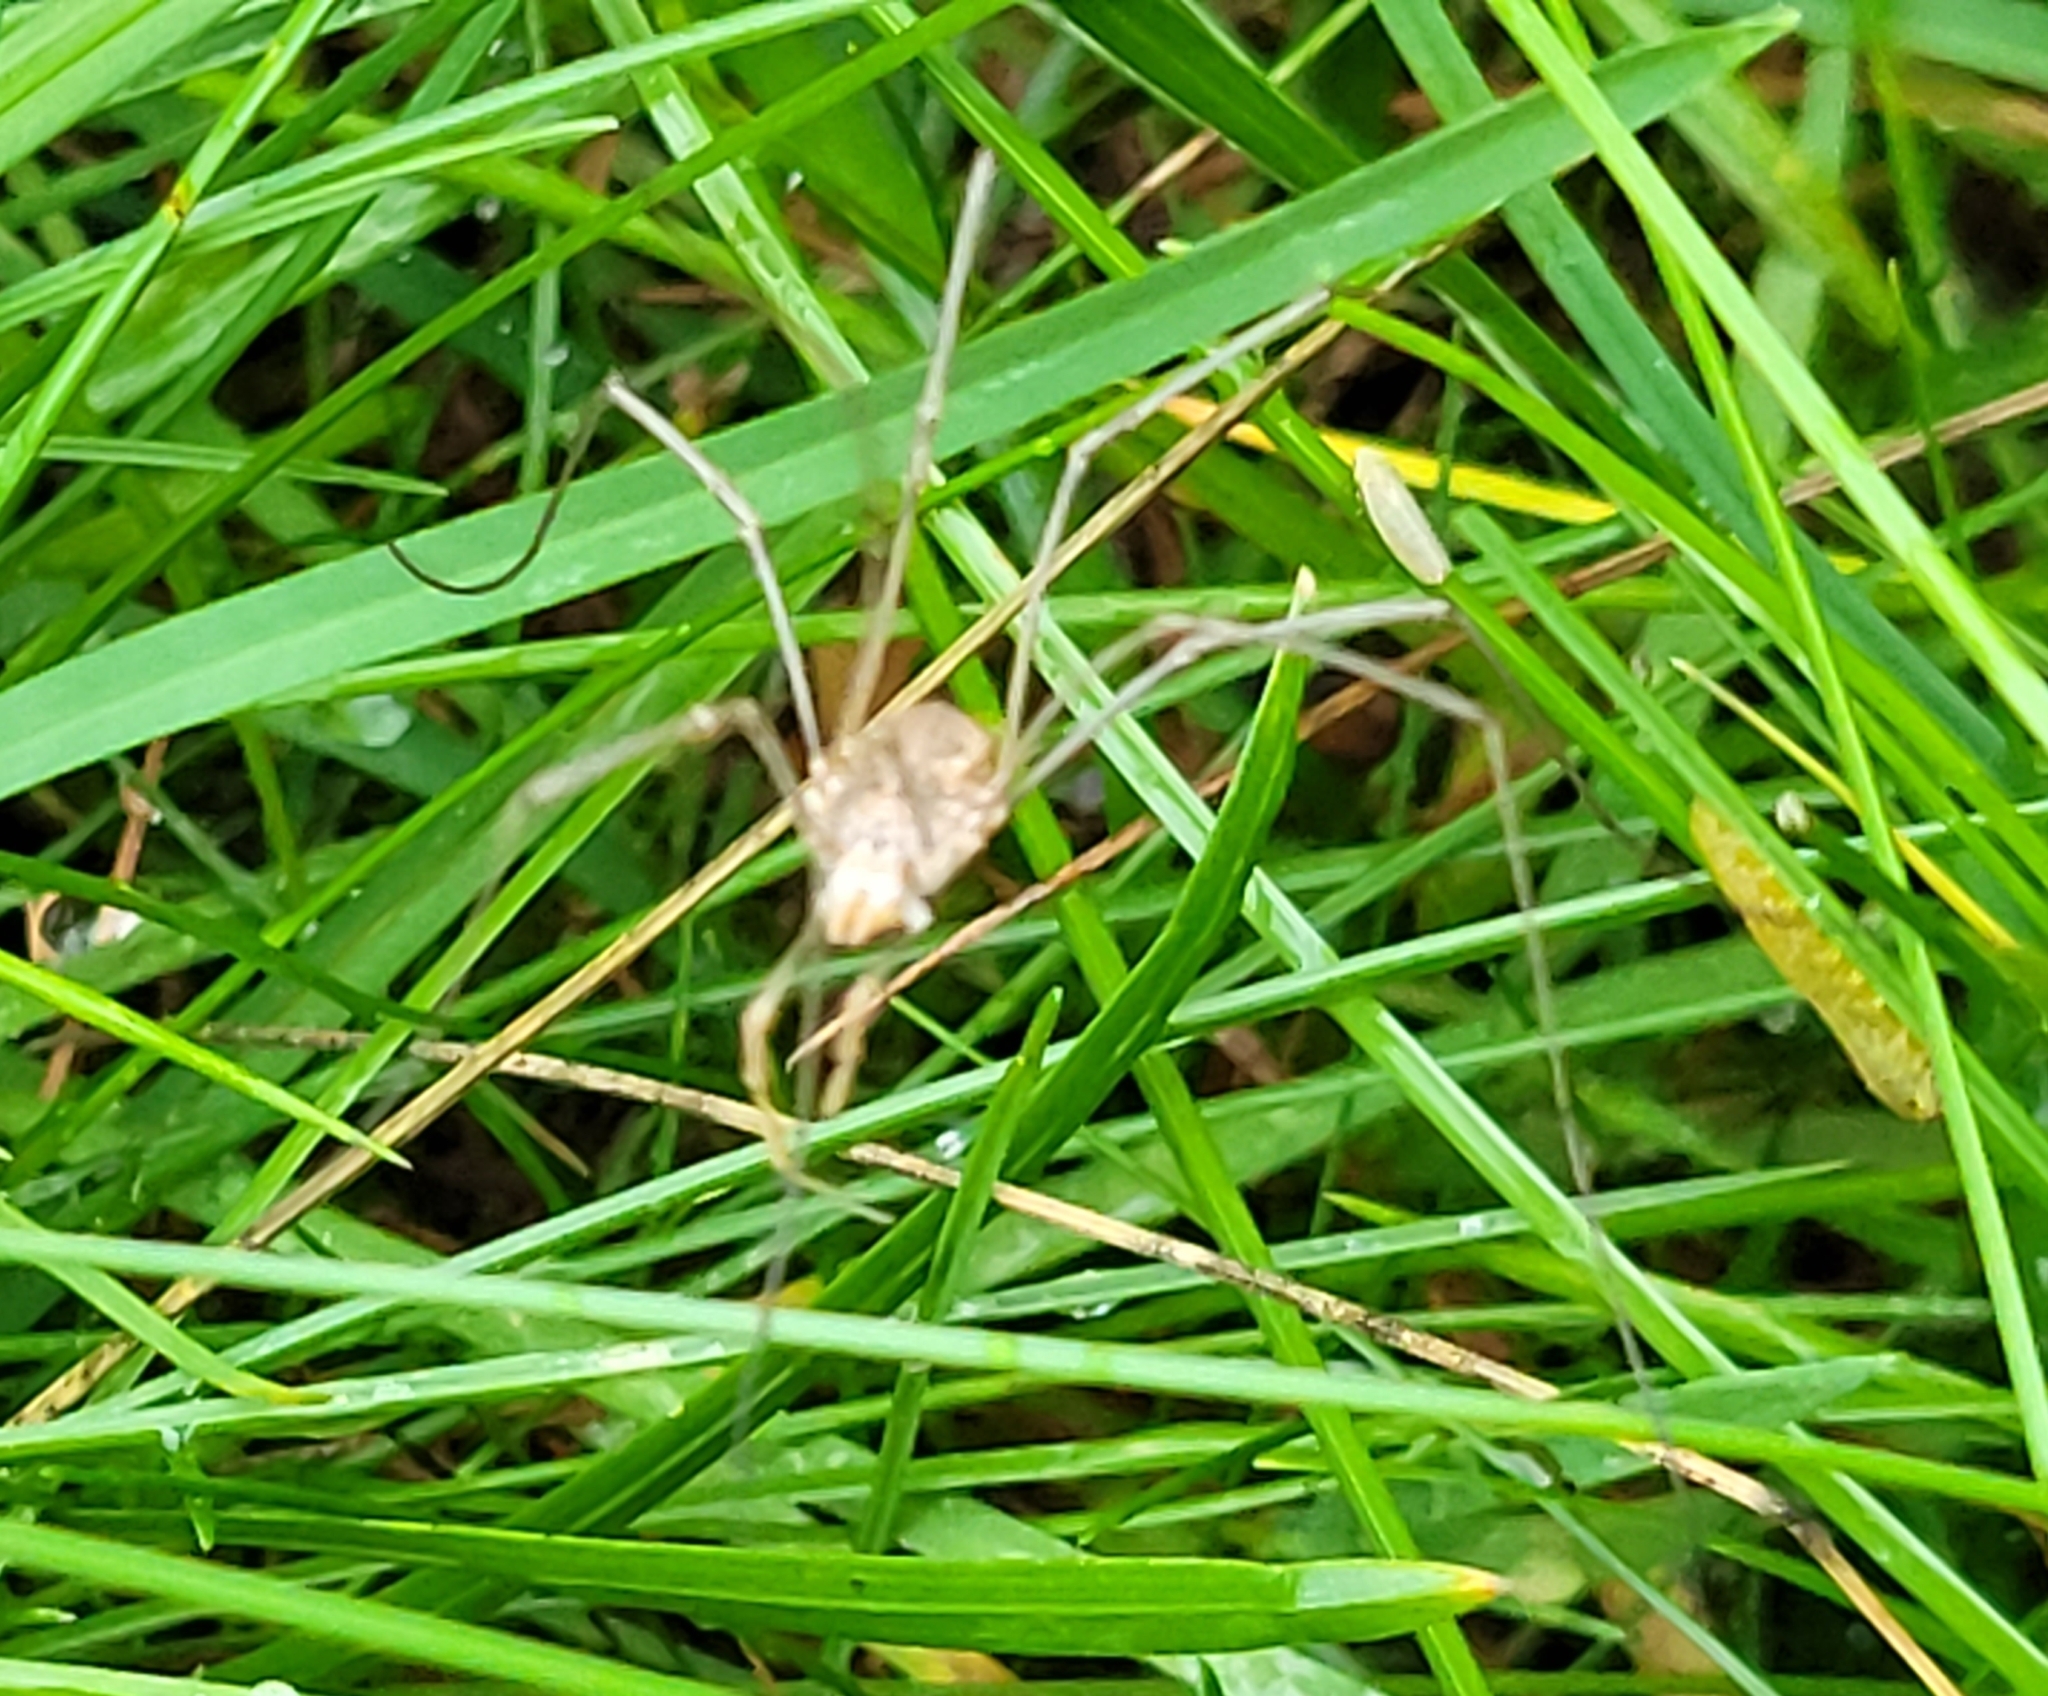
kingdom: Animalia
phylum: Arthropoda
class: Arachnida
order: Opiliones
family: Phalangiidae
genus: Phalangium
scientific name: Phalangium opilio
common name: Daddy longleg
